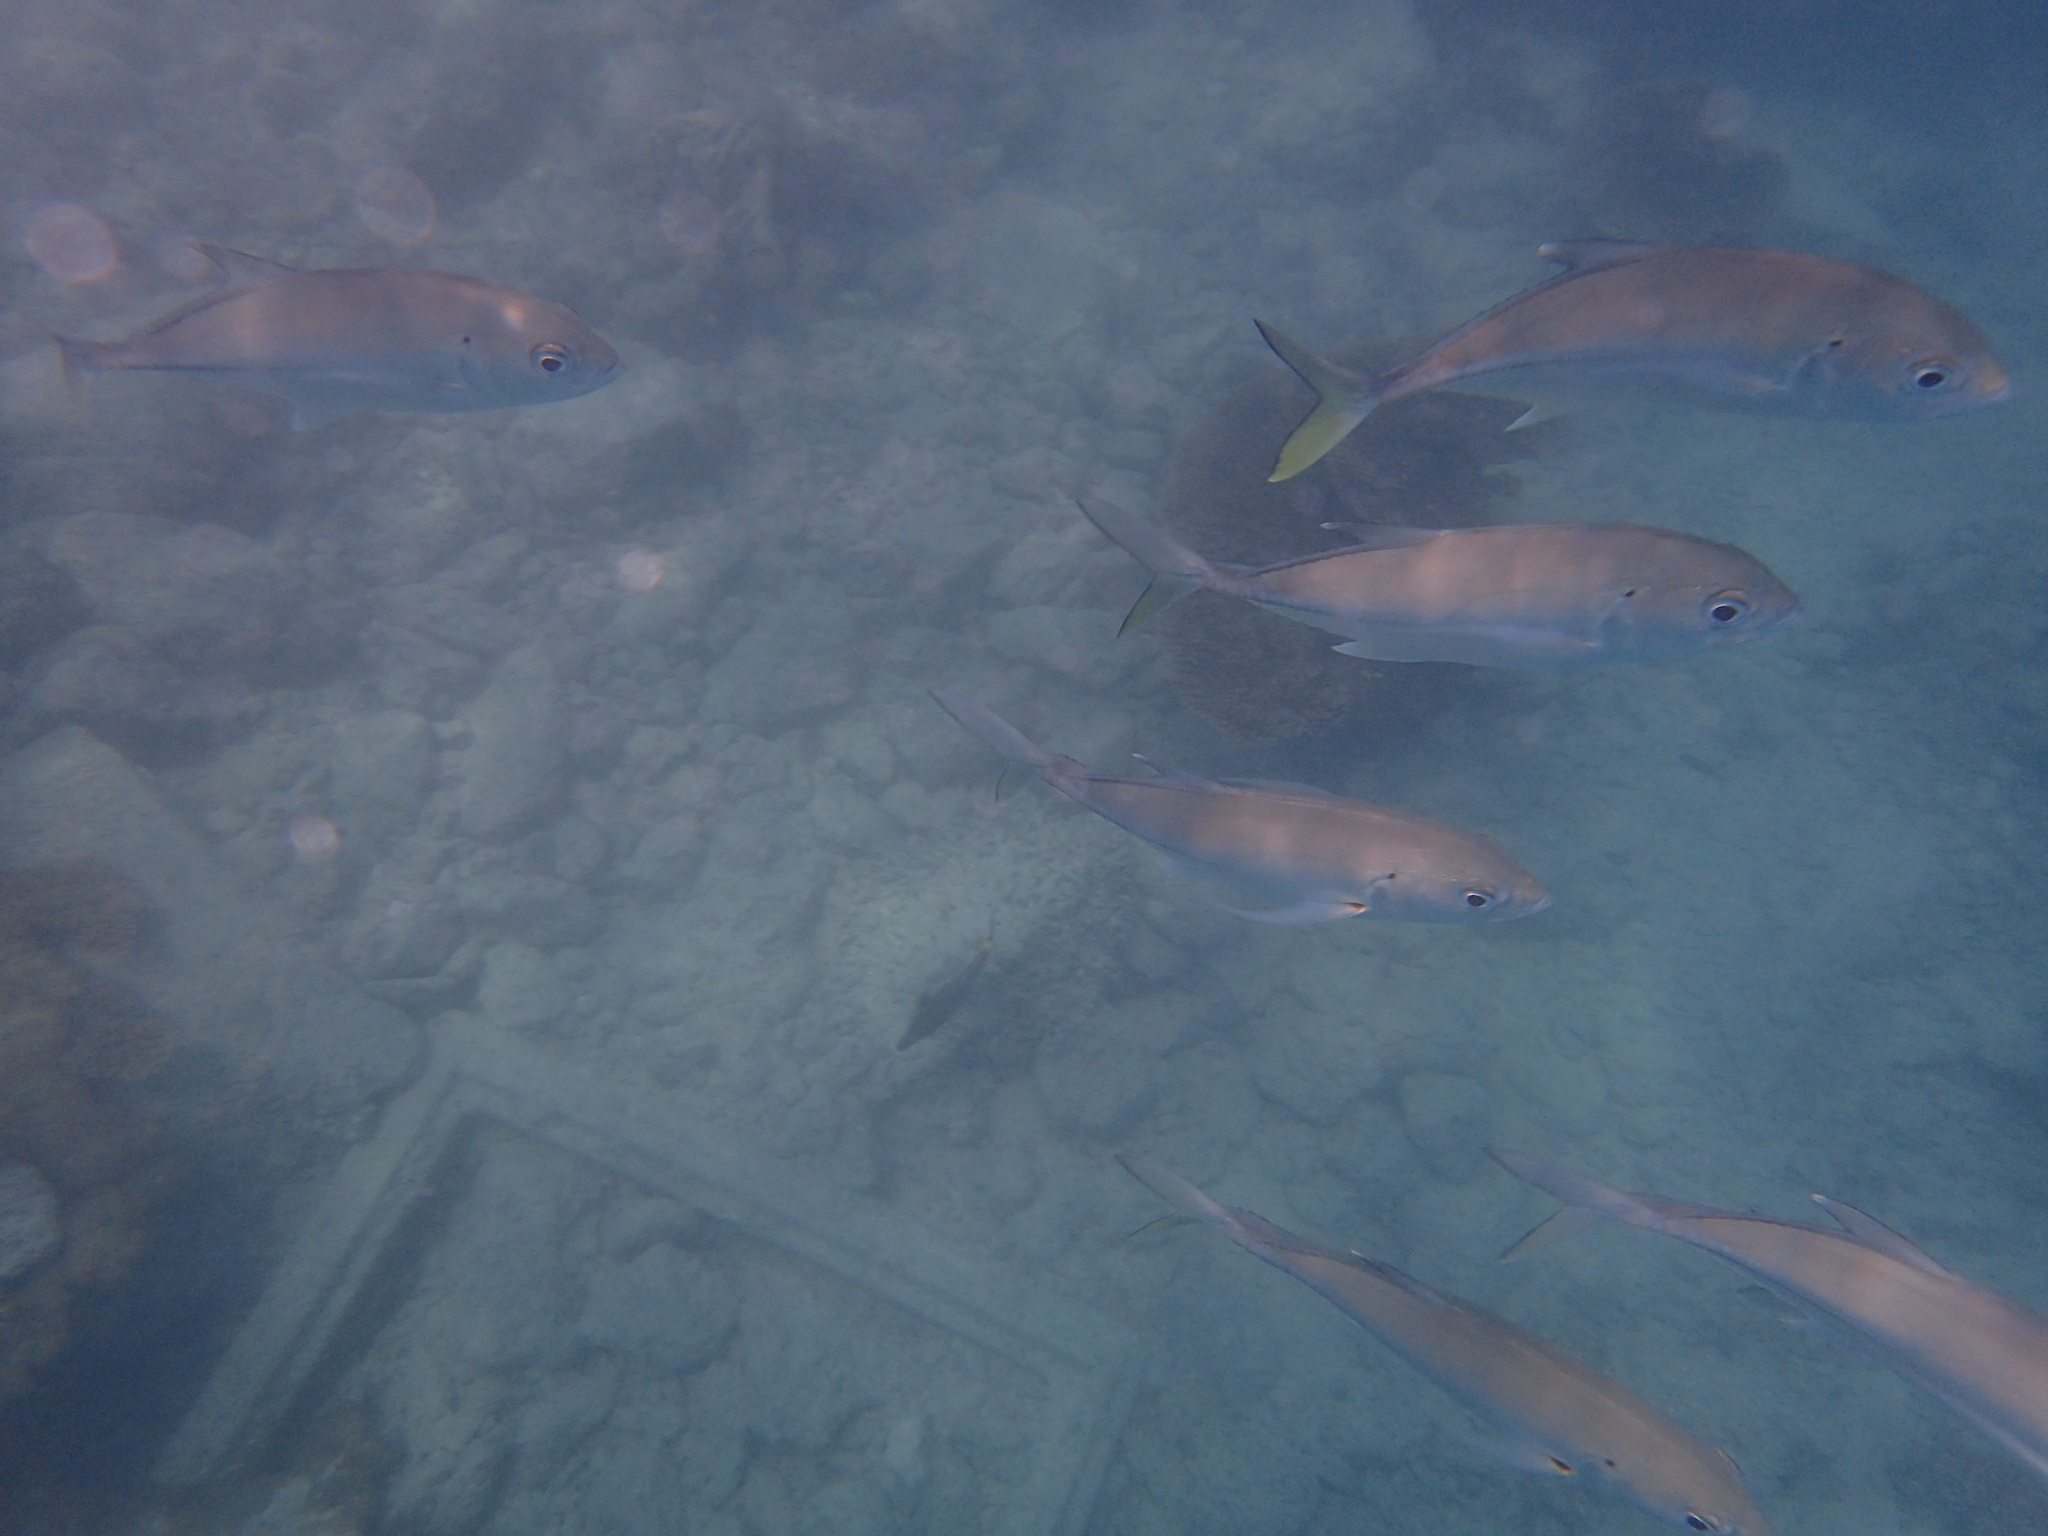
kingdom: Animalia
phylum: Chordata
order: Perciformes
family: Carangidae
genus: Caranx
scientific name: Caranx sexfasciatus
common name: Bigeye trevally
